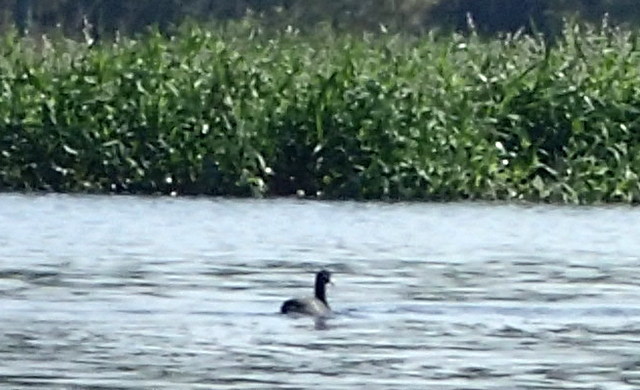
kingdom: Animalia
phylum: Chordata
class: Aves
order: Gruiformes
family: Rallidae
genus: Fulica
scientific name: Fulica americana
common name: American coot
